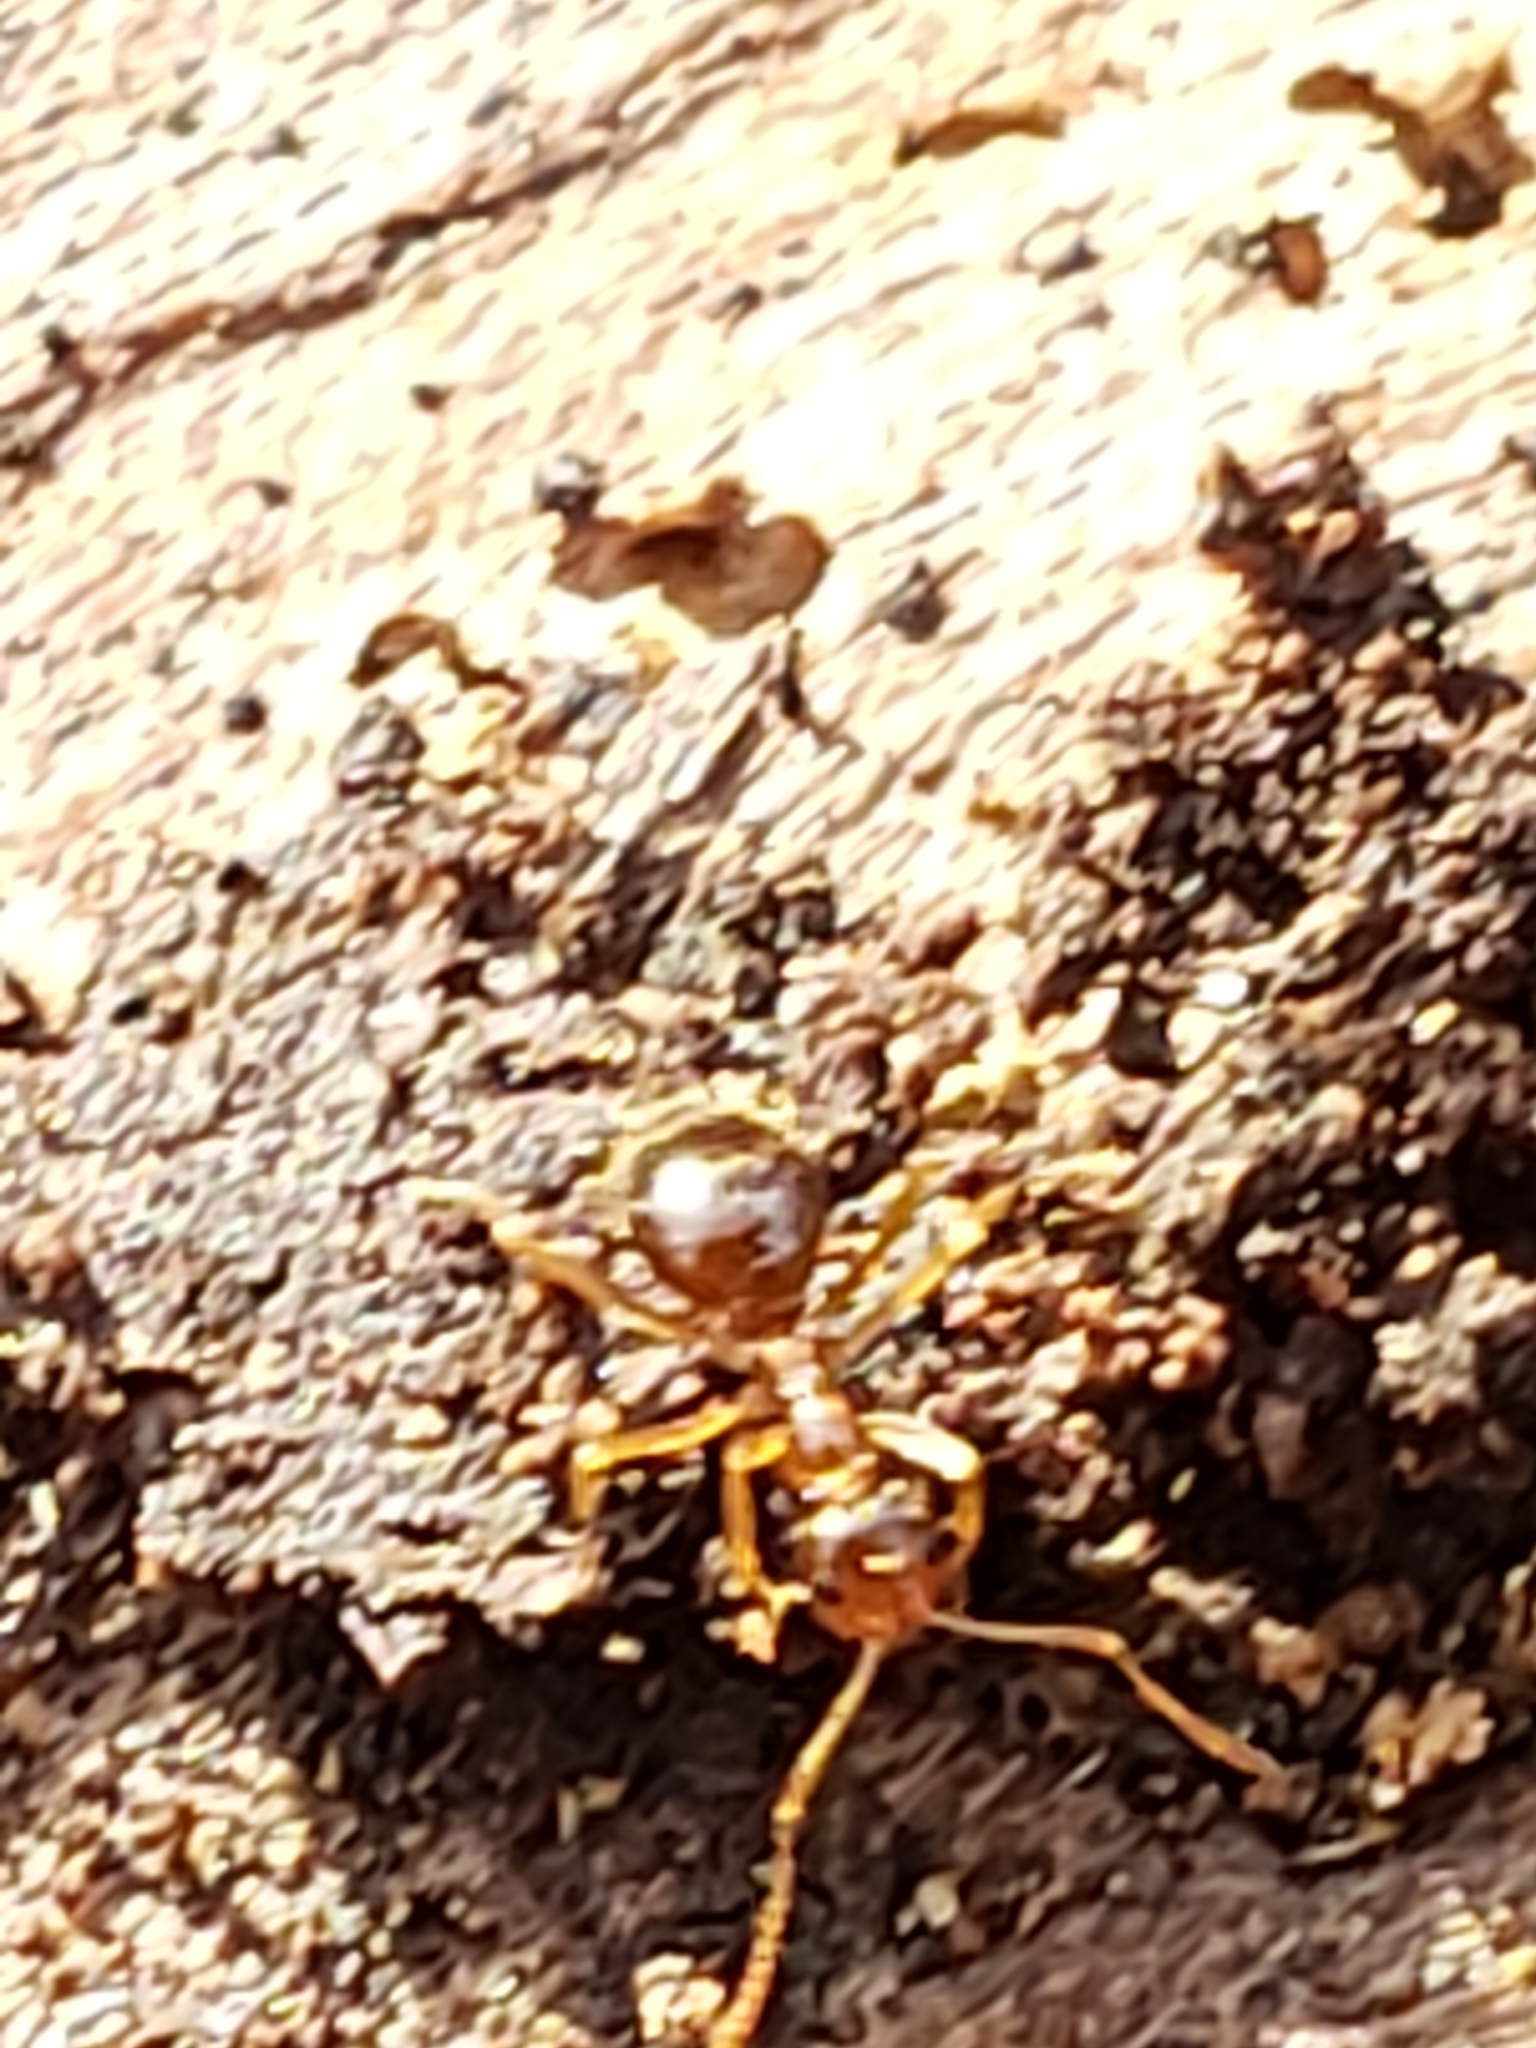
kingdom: Animalia
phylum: Arthropoda
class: Insecta
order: Hymenoptera
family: Formicidae
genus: Prenolepis
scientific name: Prenolepis imparis
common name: Small honey ant
